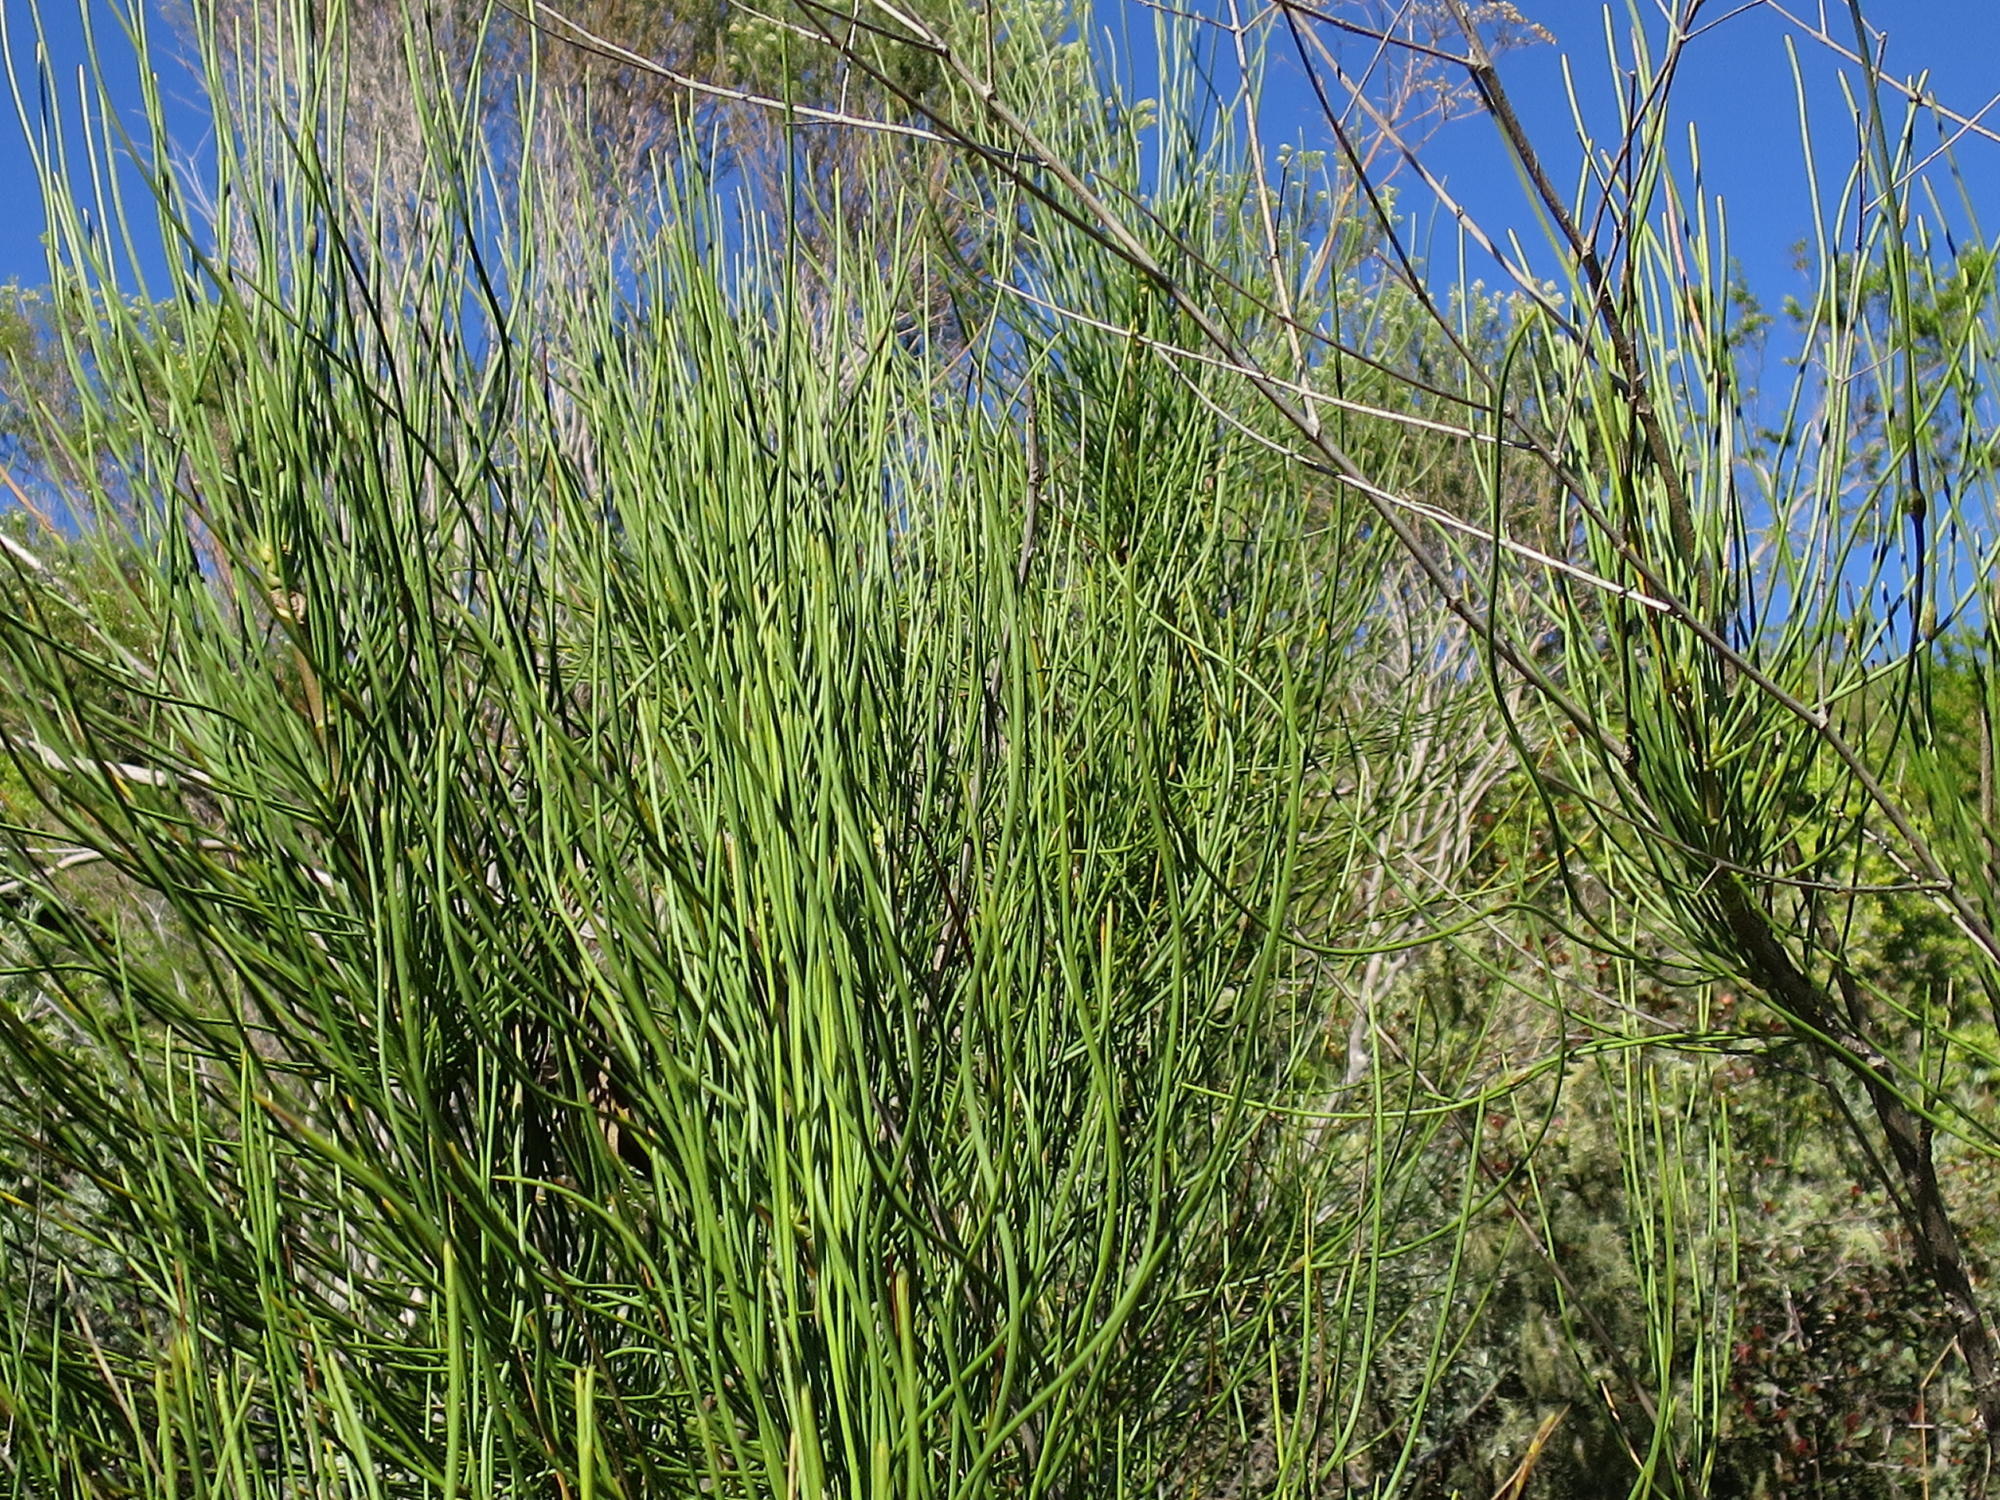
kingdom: Plantae
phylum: Tracheophyta
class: Magnoliopsida
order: Apiales
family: Apiaceae
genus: Anginon
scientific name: Anginon difforme
